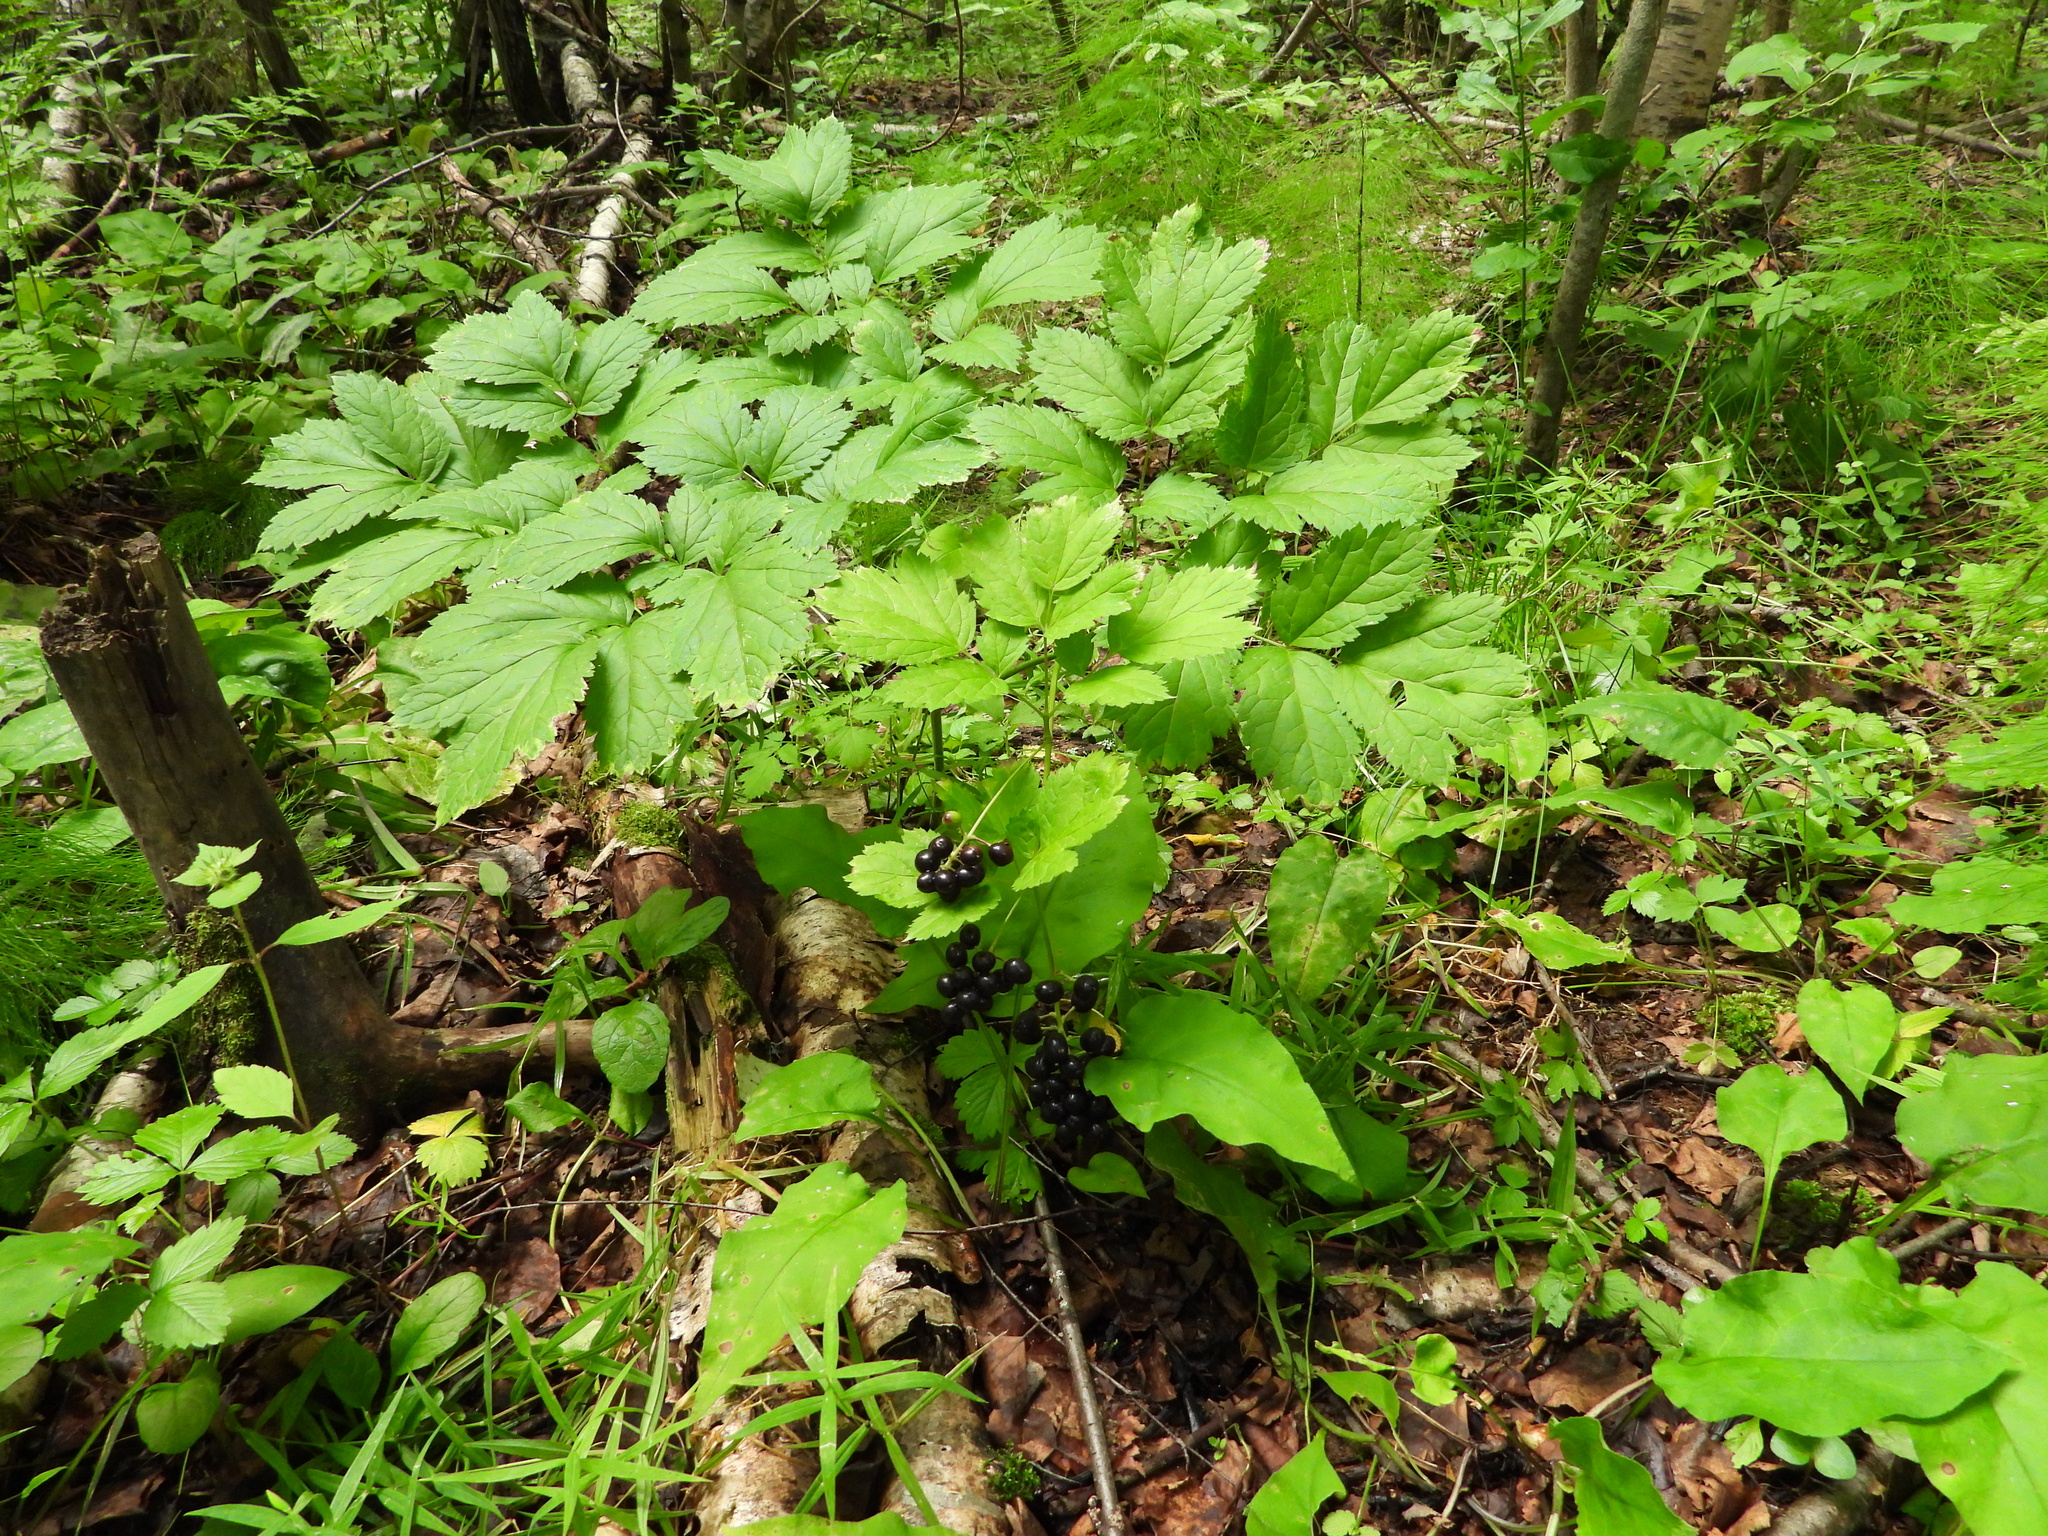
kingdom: Plantae
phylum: Tracheophyta
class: Magnoliopsida
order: Ranunculales
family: Ranunculaceae
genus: Actaea
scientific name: Actaea spicata
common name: Baneberry
